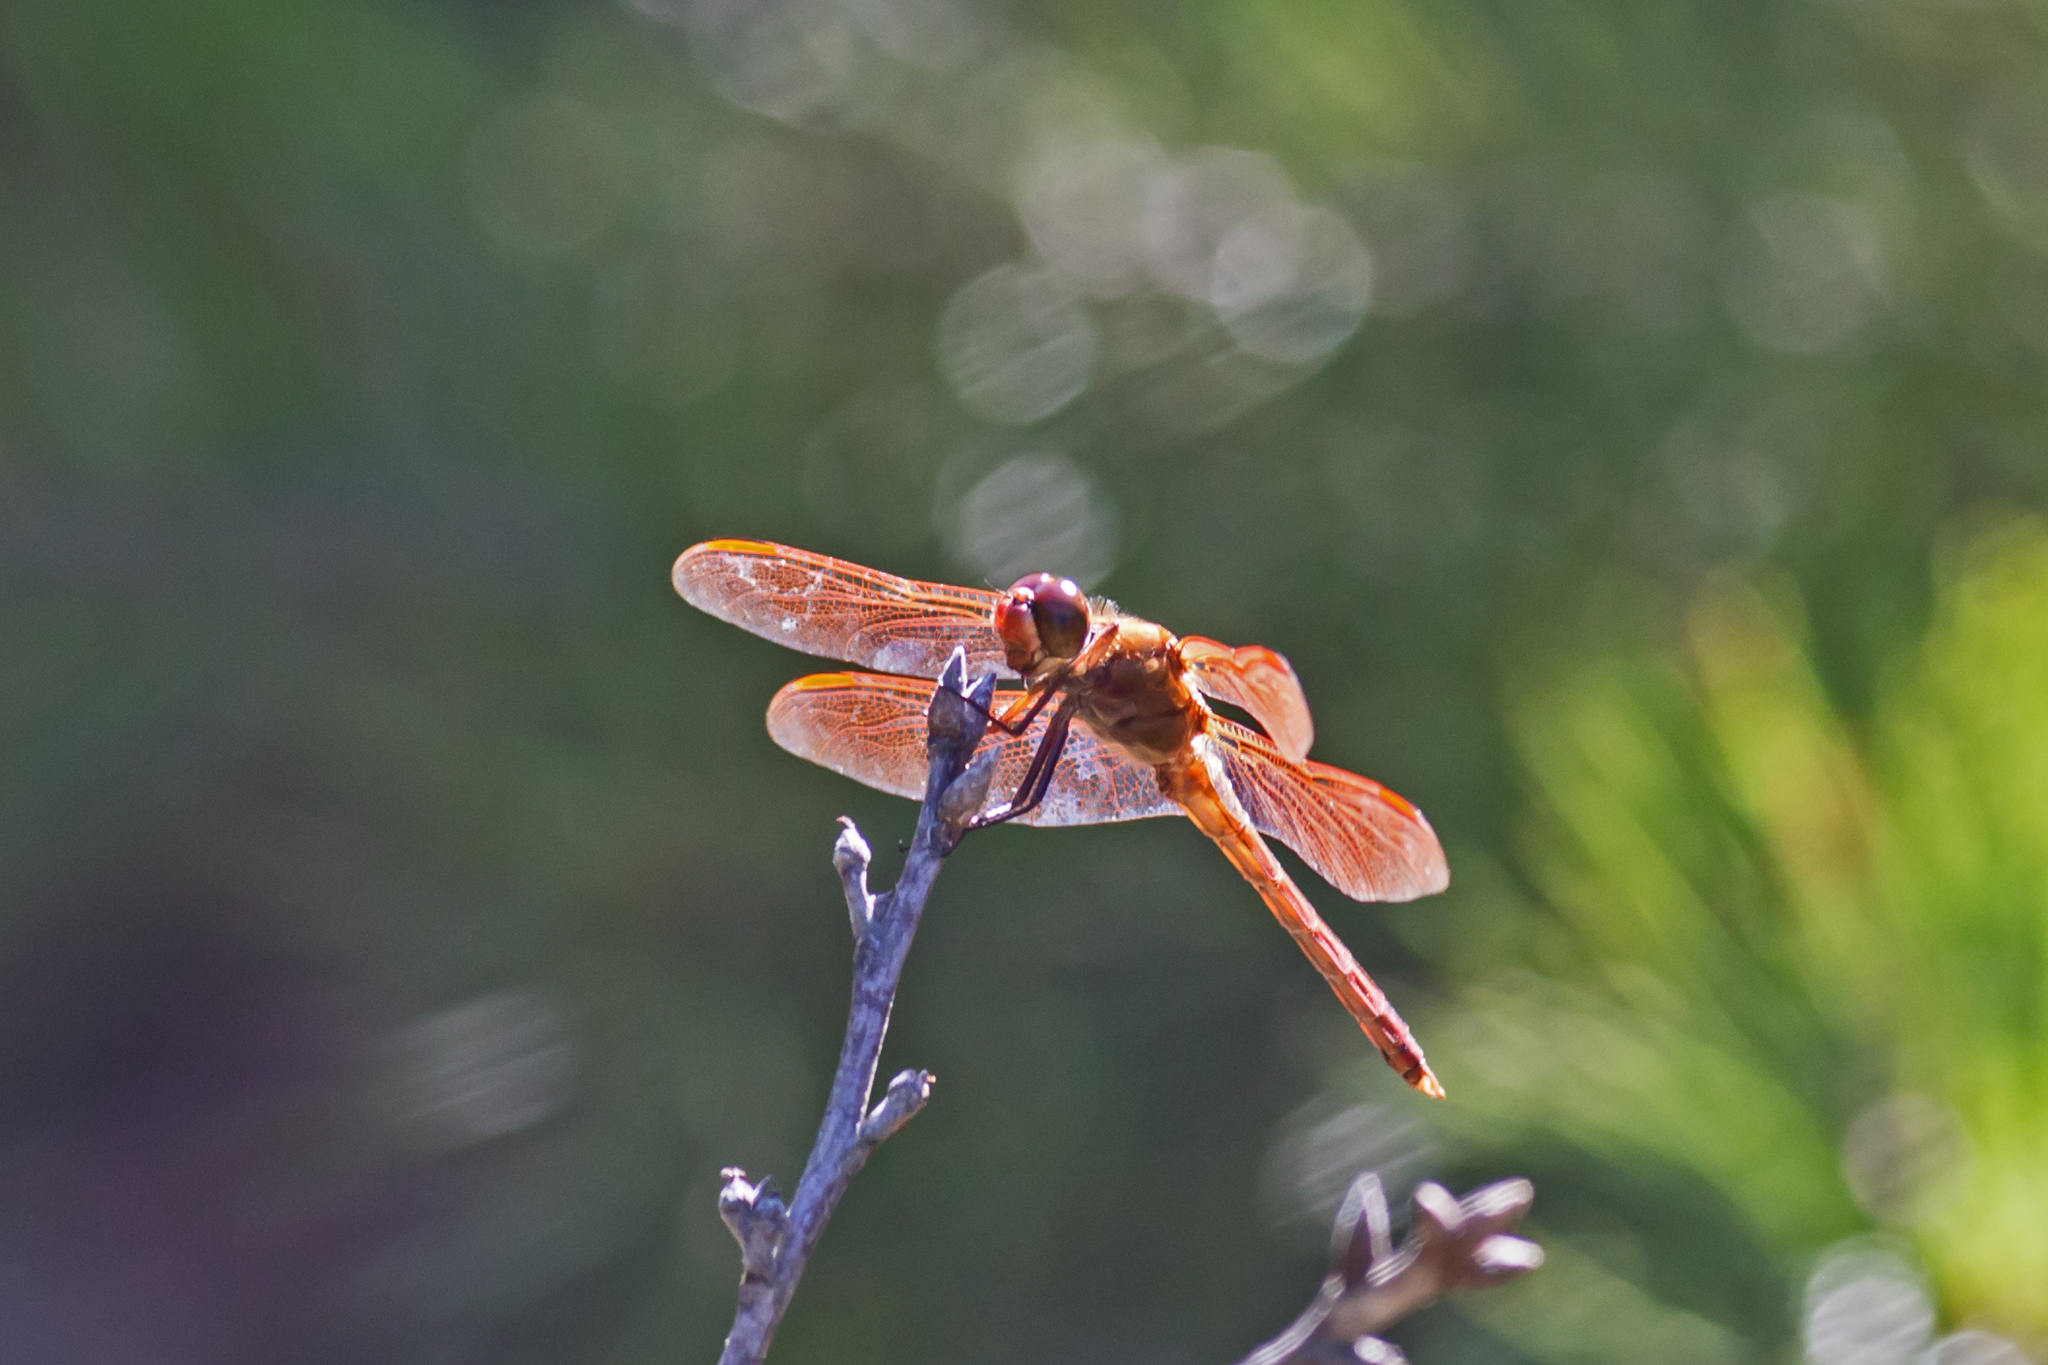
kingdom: Animalia
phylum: Arthropoda
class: Insecta
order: Odonata
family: Libellulidae
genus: Libellula
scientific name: Libellula auripennis
